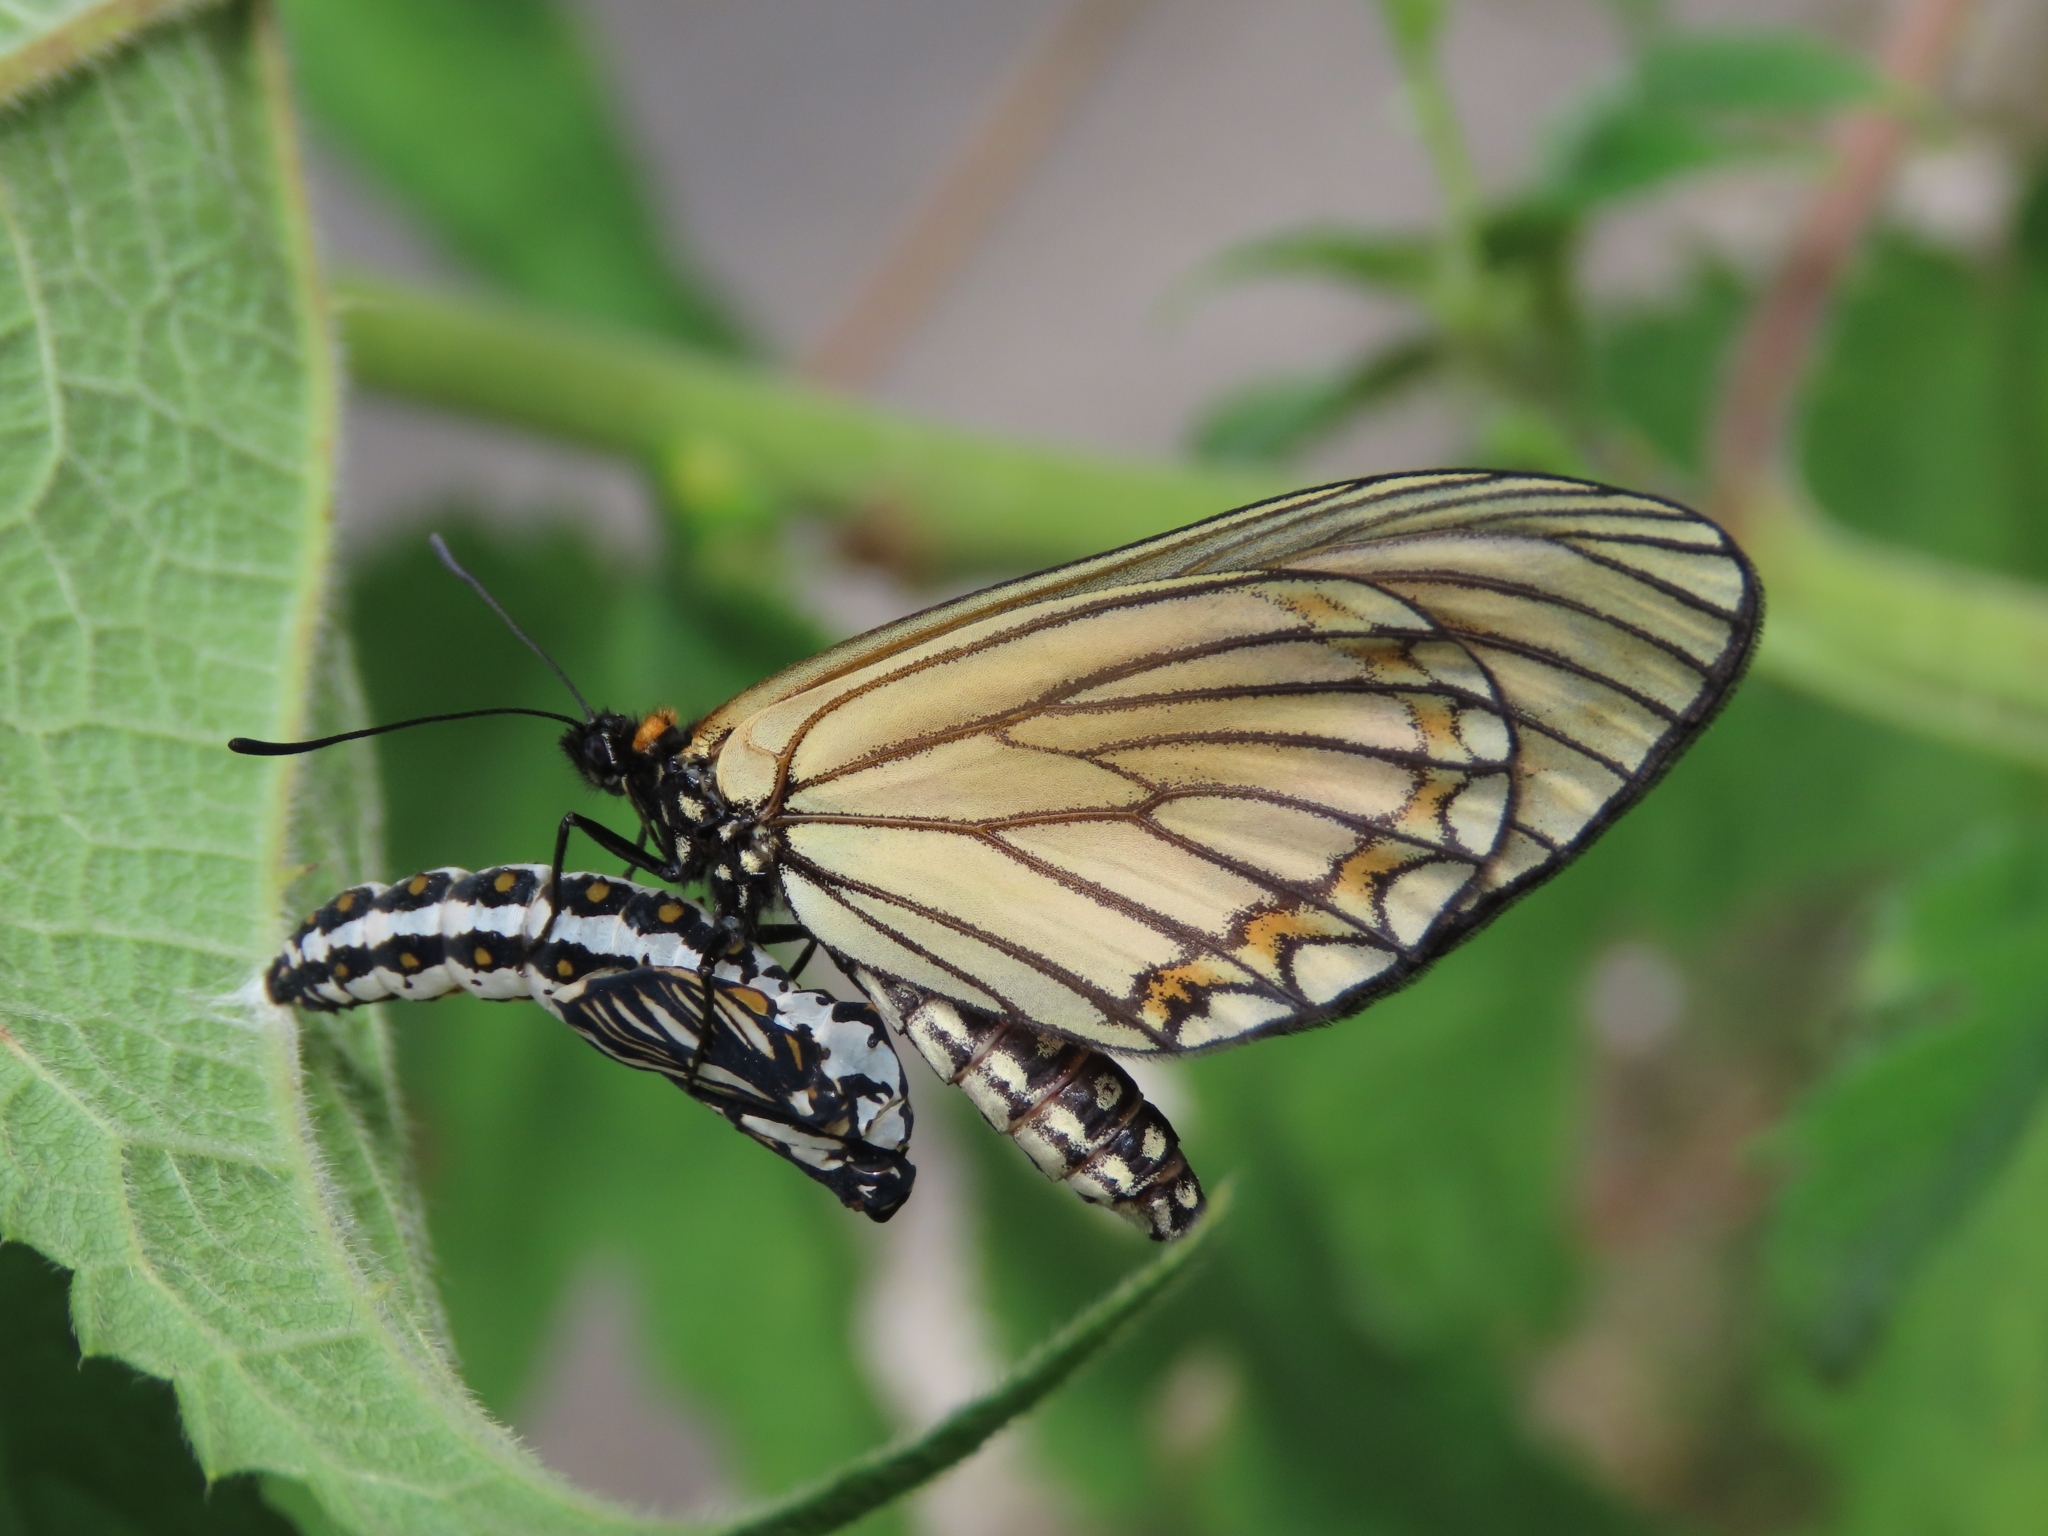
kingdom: Animalia
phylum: Arthropoda
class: Insecta
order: Lepidoptera
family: Nymphalidae
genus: Acraea
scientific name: Acraea Telchinia issoria
